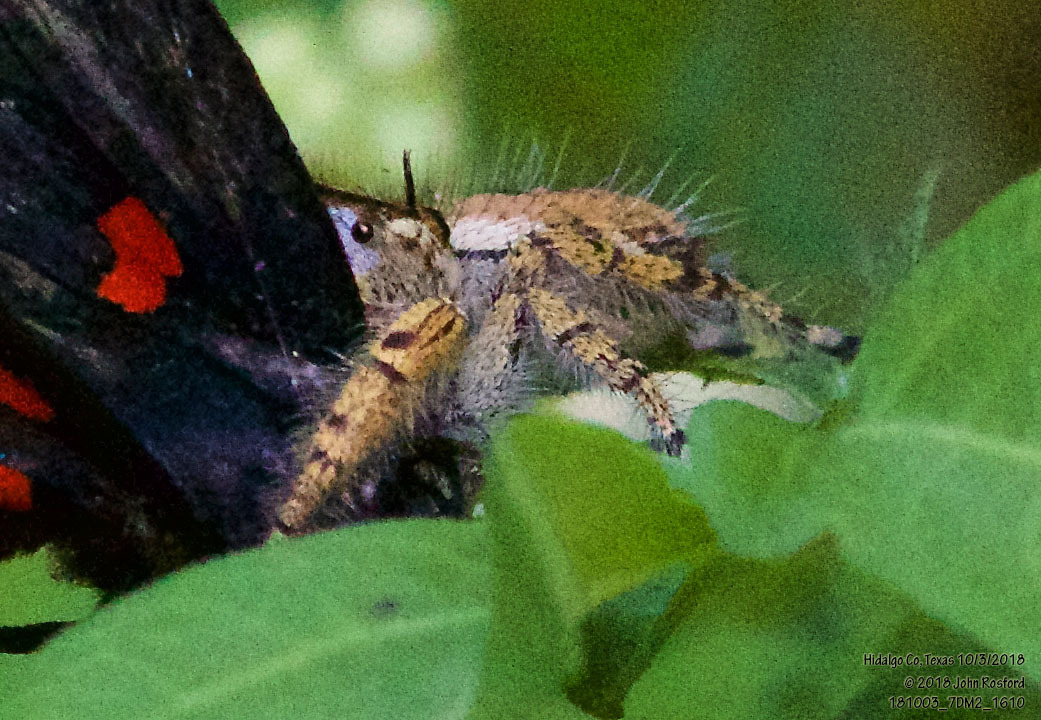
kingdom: Animalia
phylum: Arthropoda
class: Arachnida
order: Araneae
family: Salticidae
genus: Phidippus
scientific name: Phidippus arizonensis
